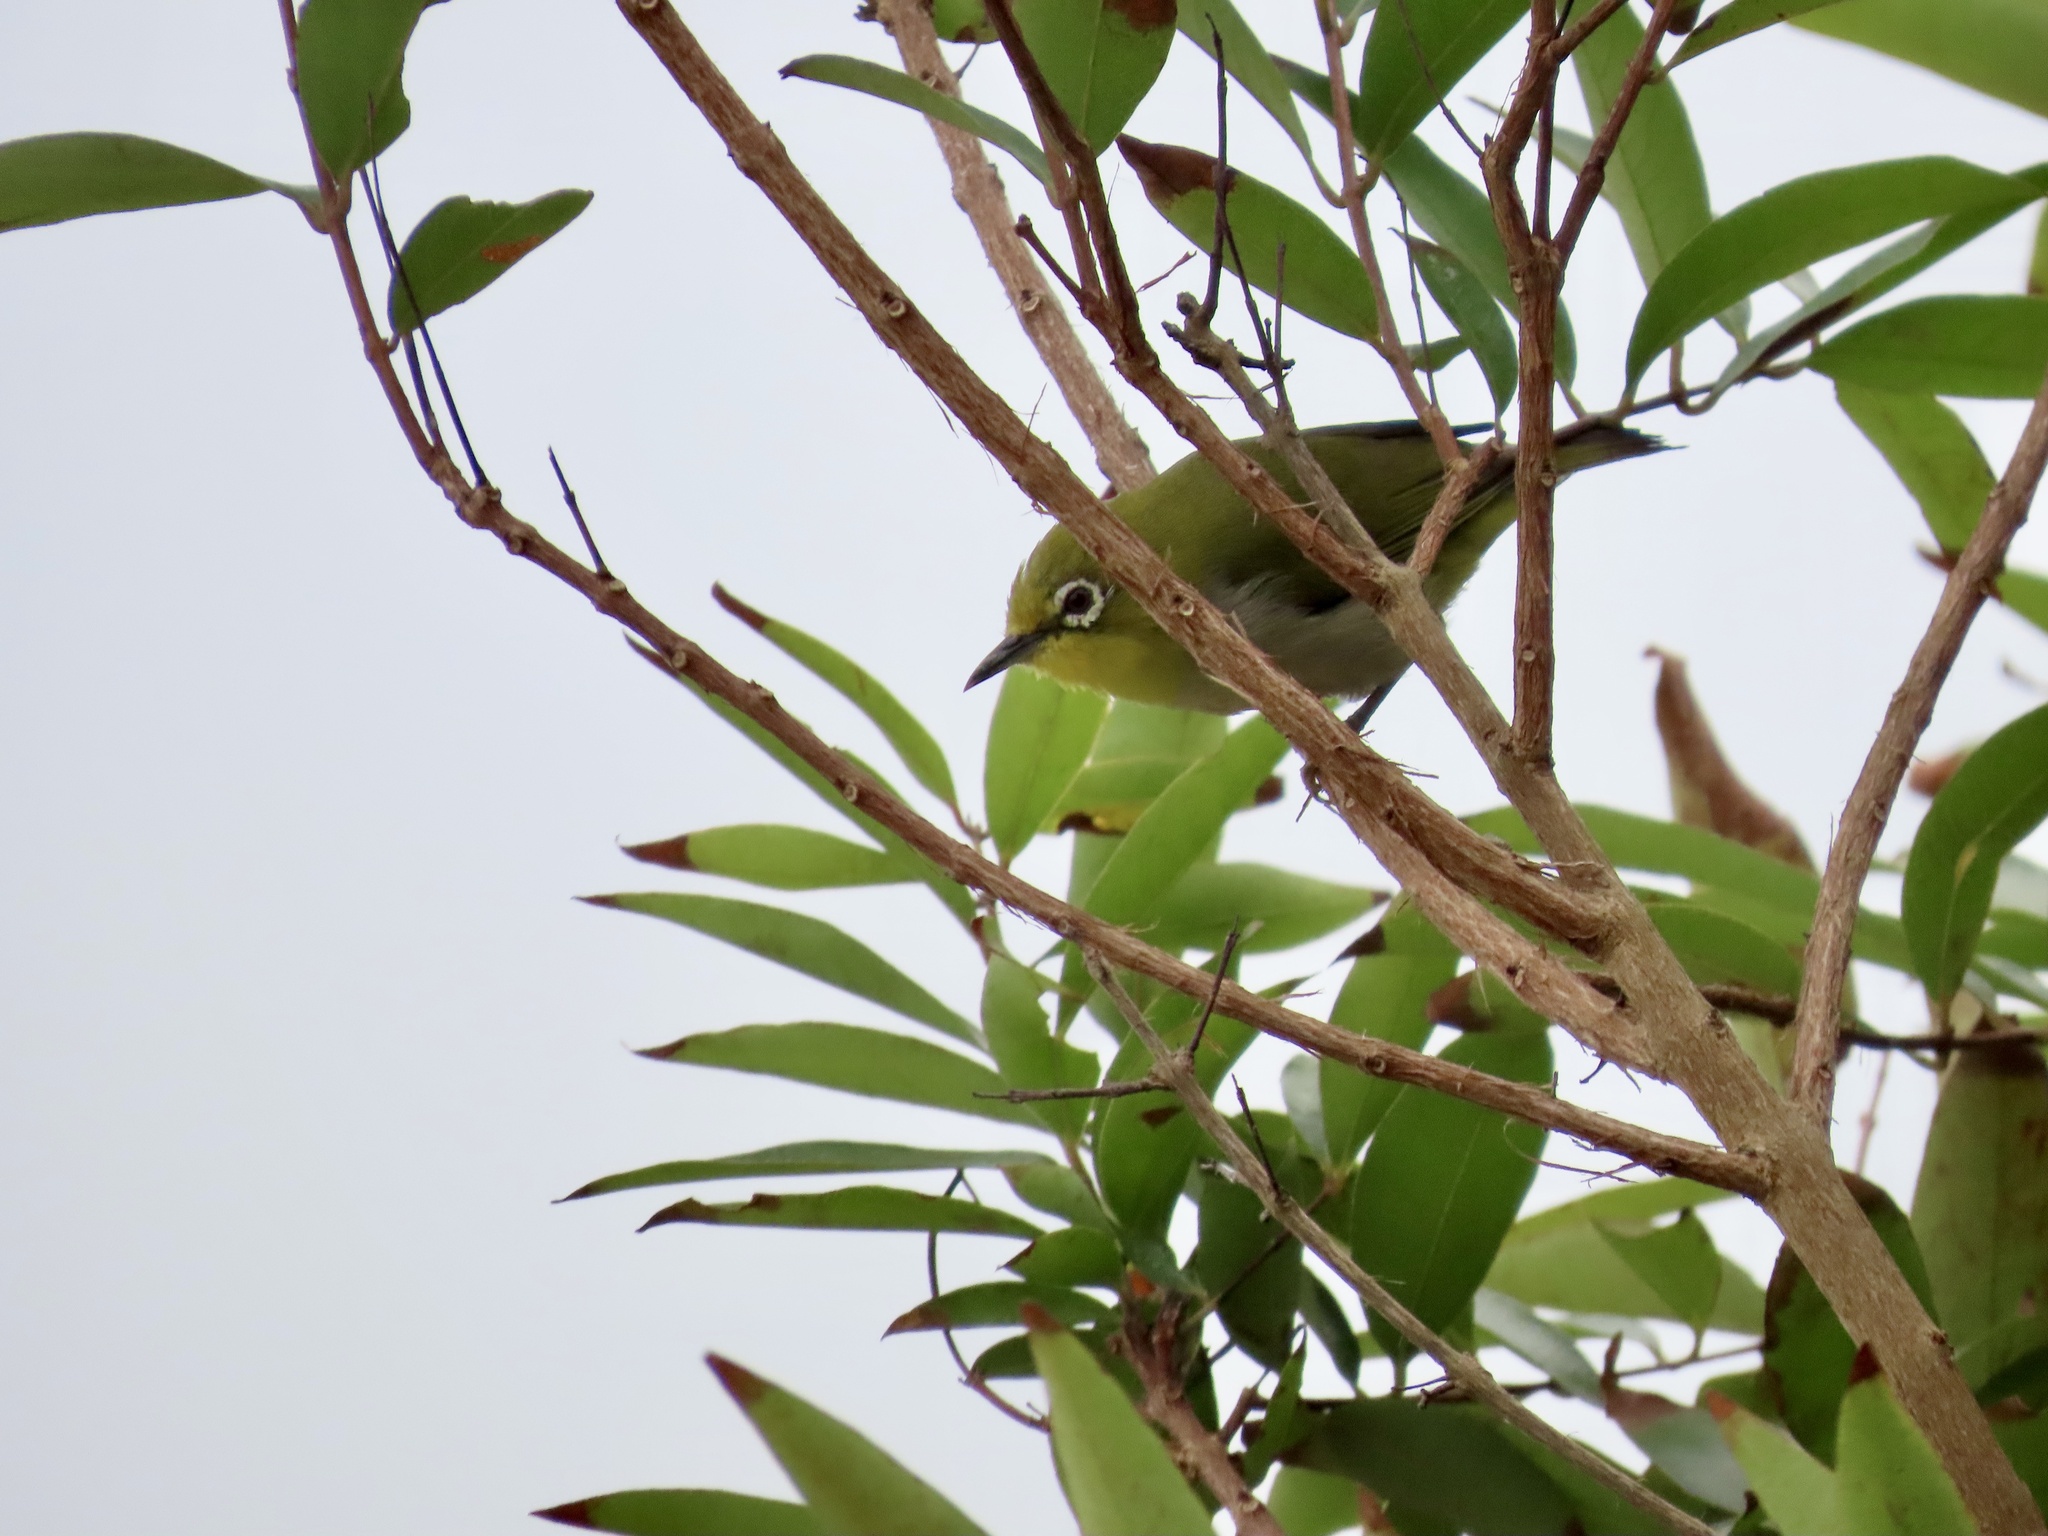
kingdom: Animalia
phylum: Chordata
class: Aves
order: Passeriformes
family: Zosteropidae
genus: Zosterops
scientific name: Zosterops simplex
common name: Swinhoe's white-eye
